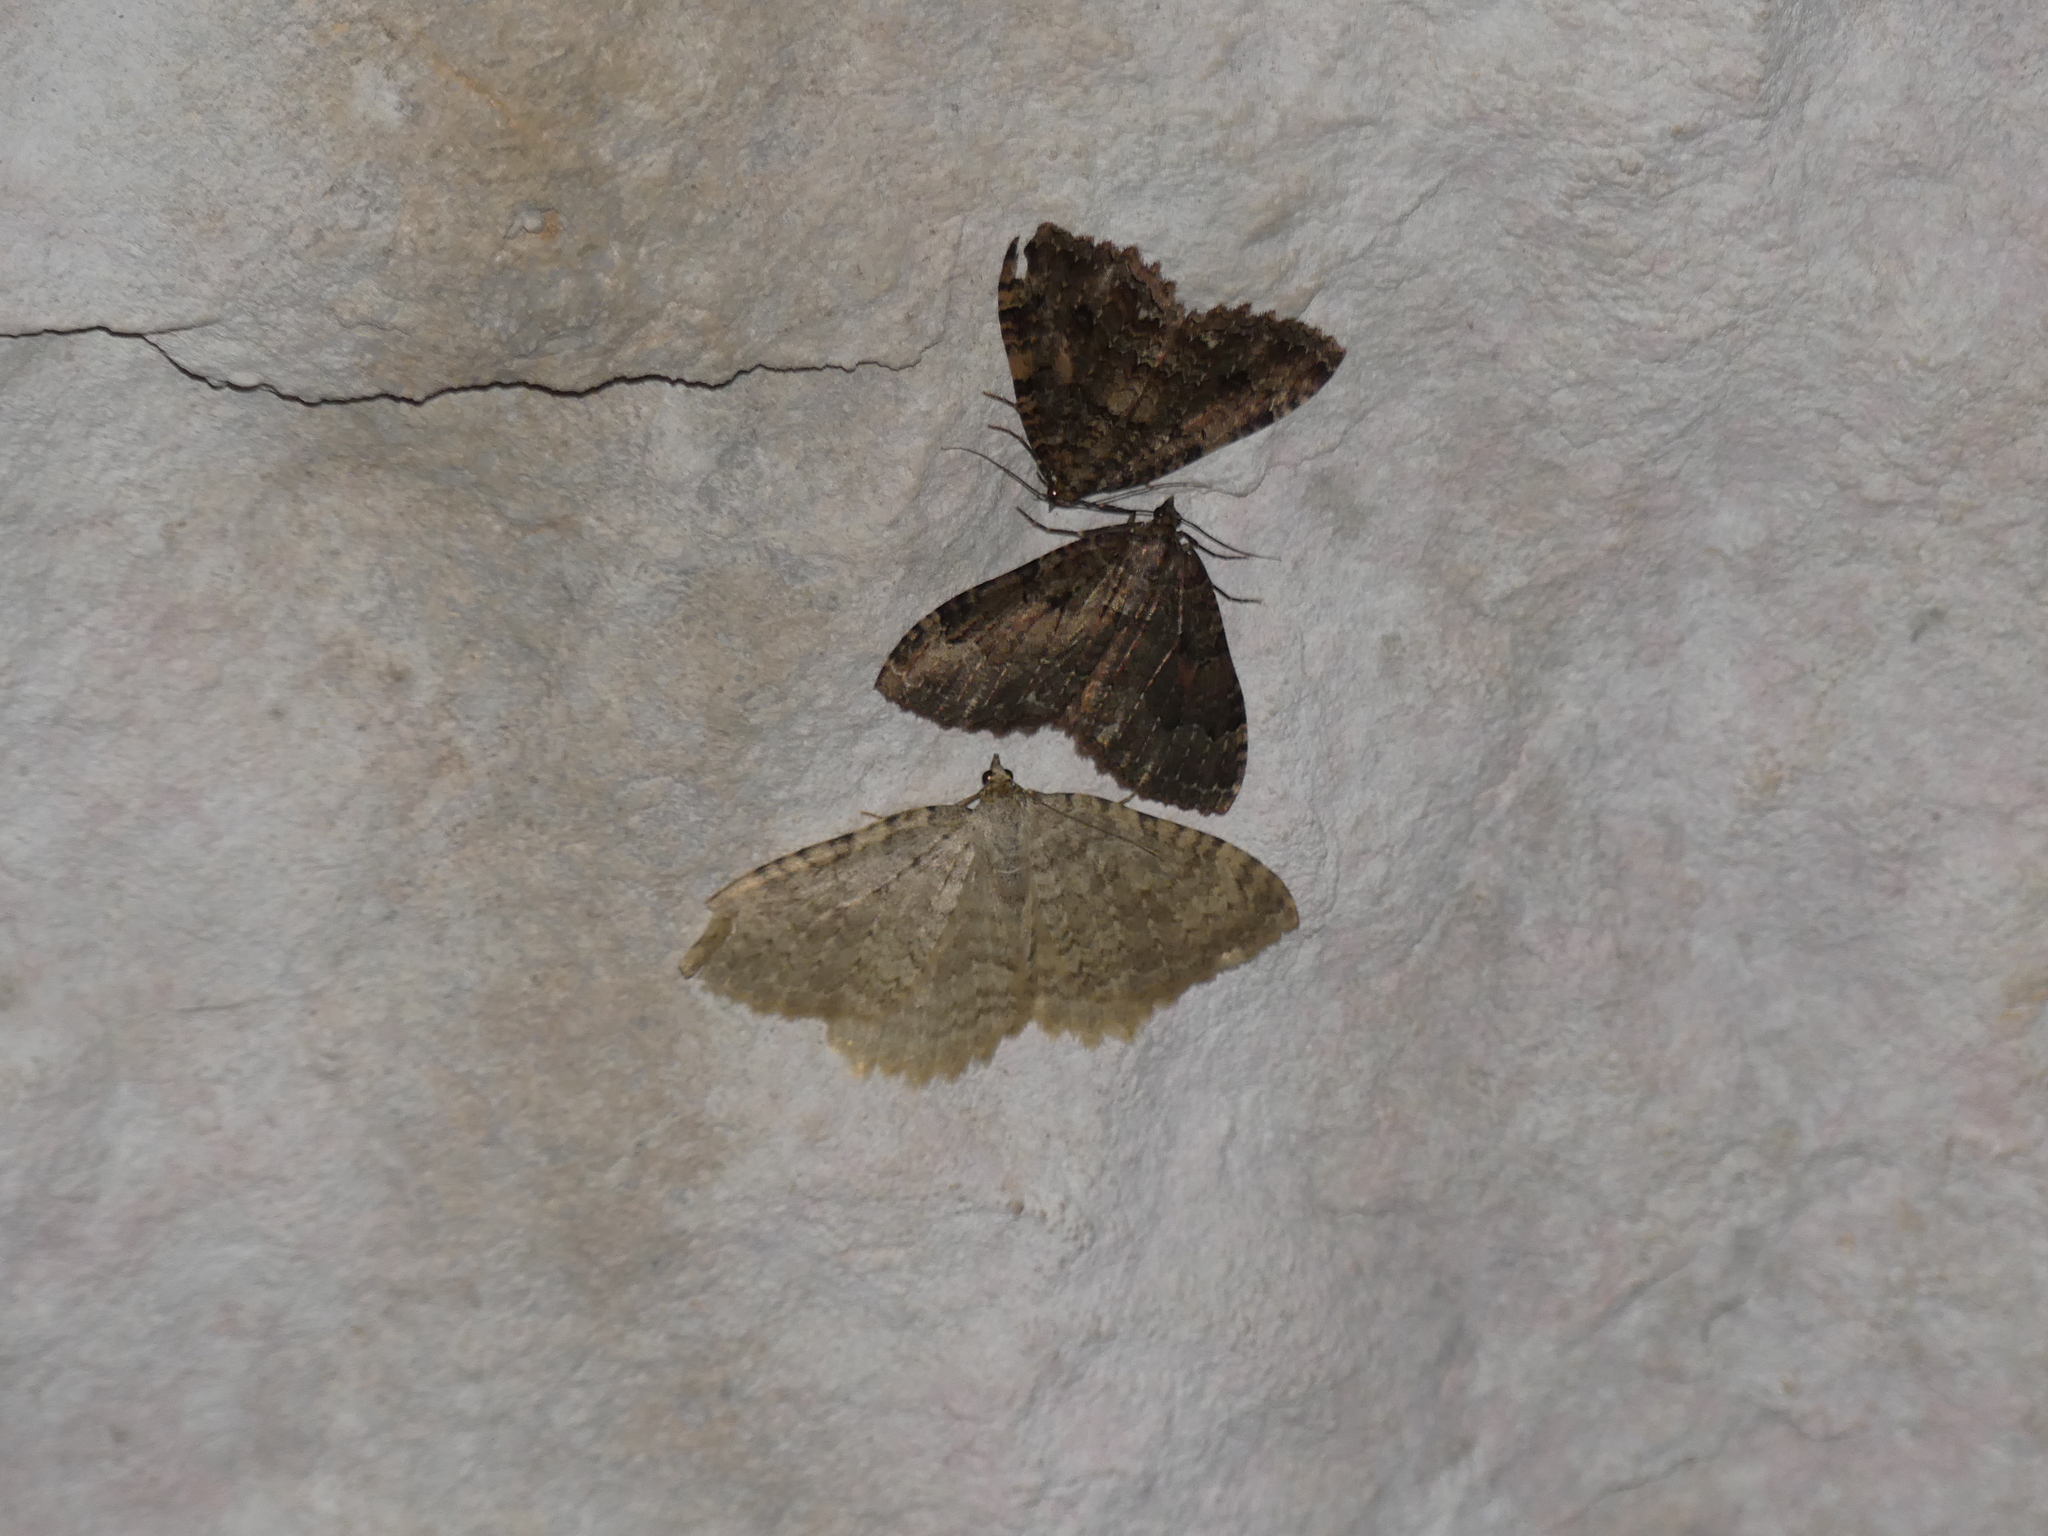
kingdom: Animalia
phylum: Arthropoda
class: Insecta
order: Lepidoptera
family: Geometridae
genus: Triphosa
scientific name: Triphosa dubitata
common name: Tissue
